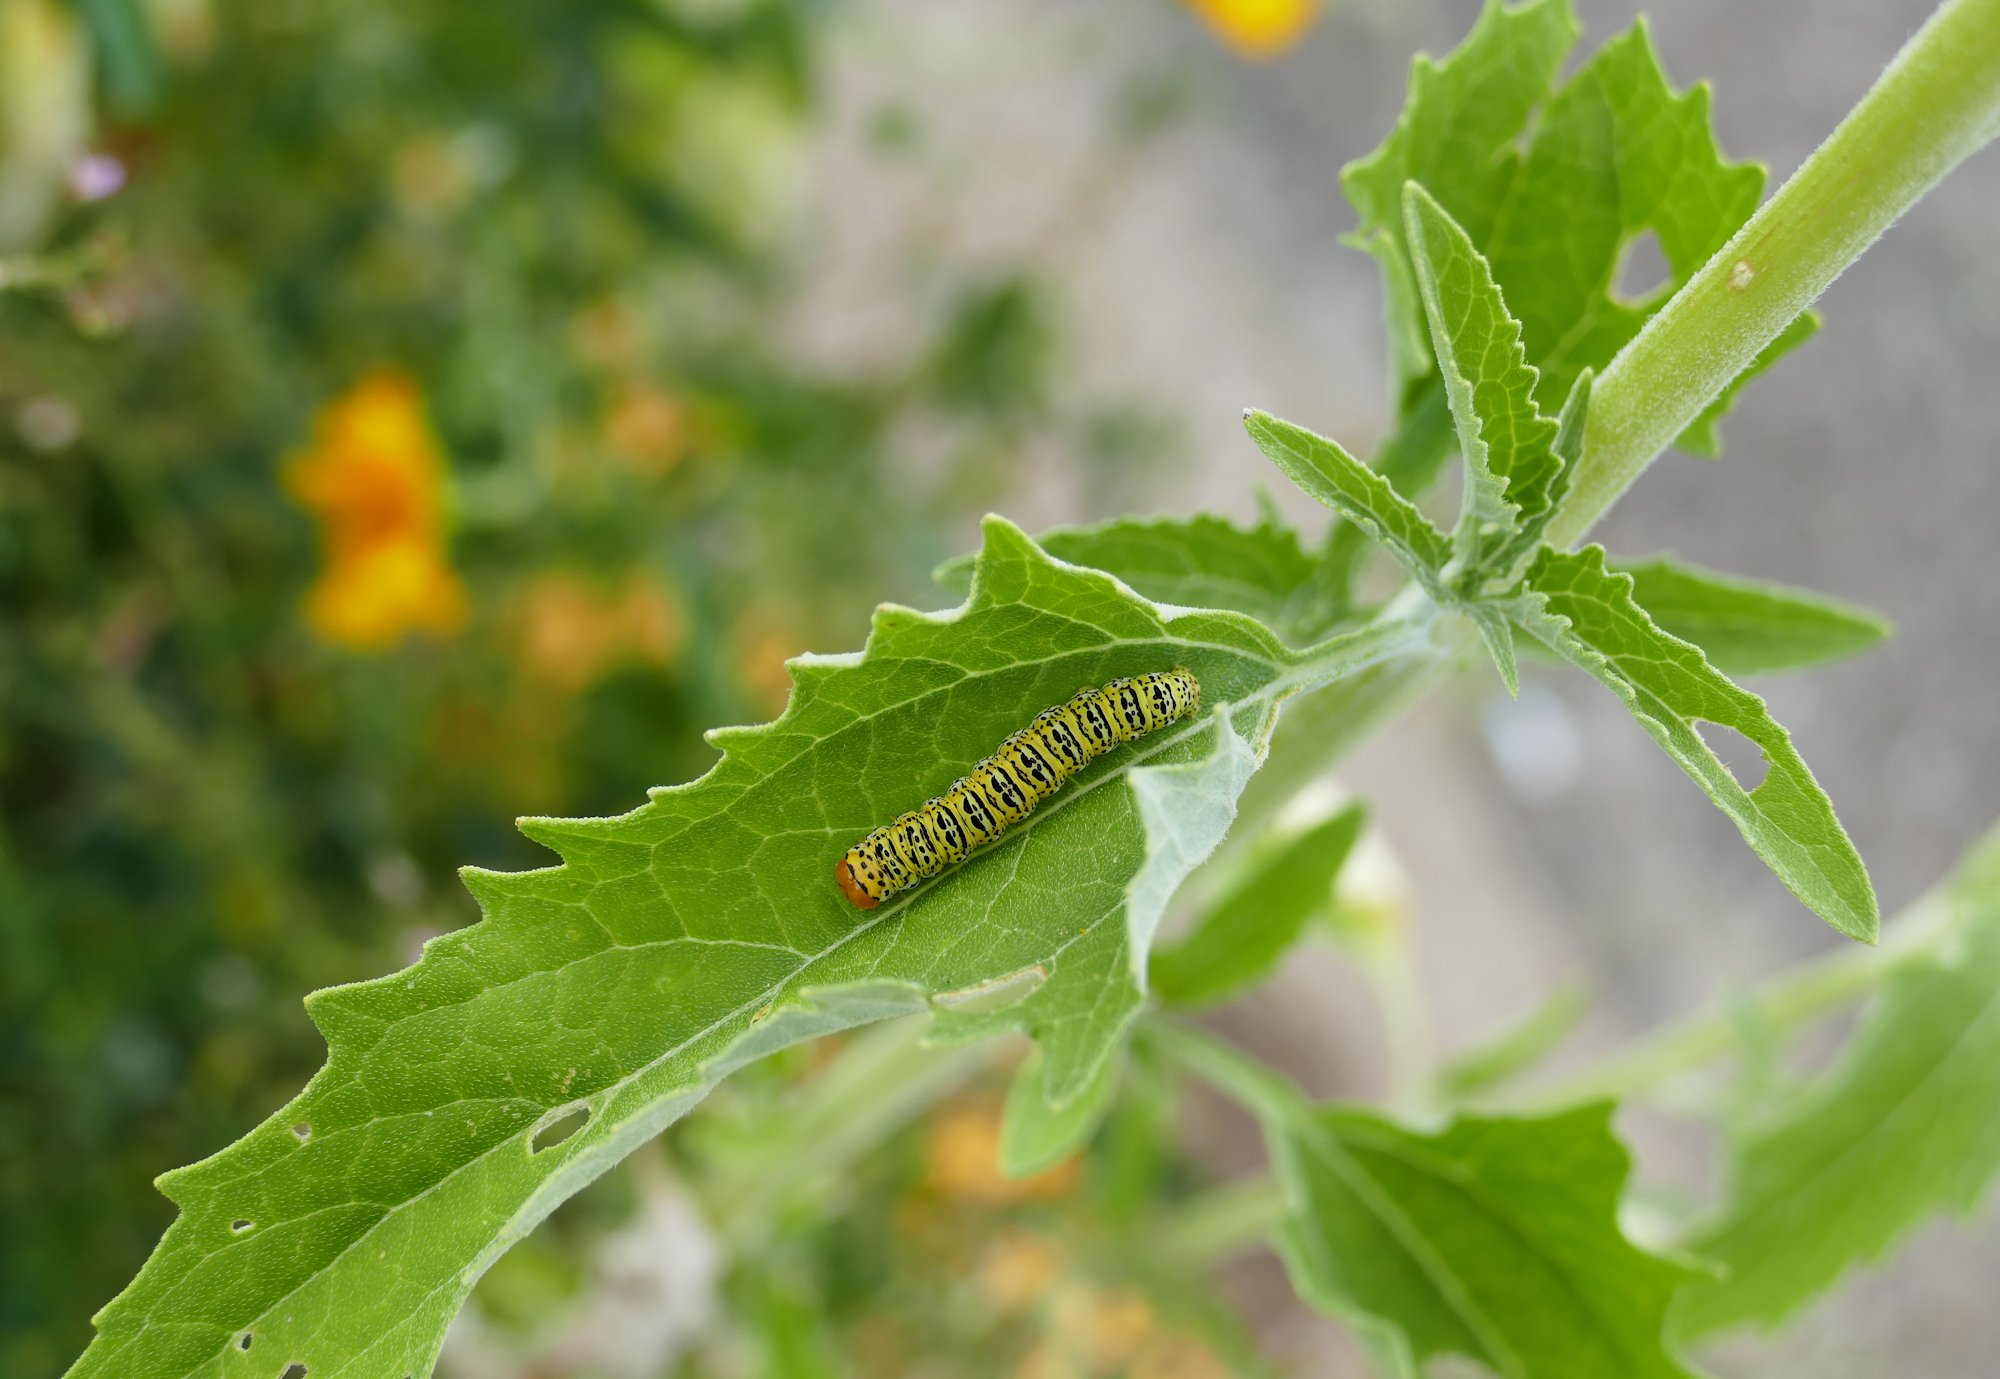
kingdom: Animalia
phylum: Arthropoda
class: Insecta
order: Lepidoptera
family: Noctuidae
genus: Basilodes
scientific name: Basilodes chrysopis
